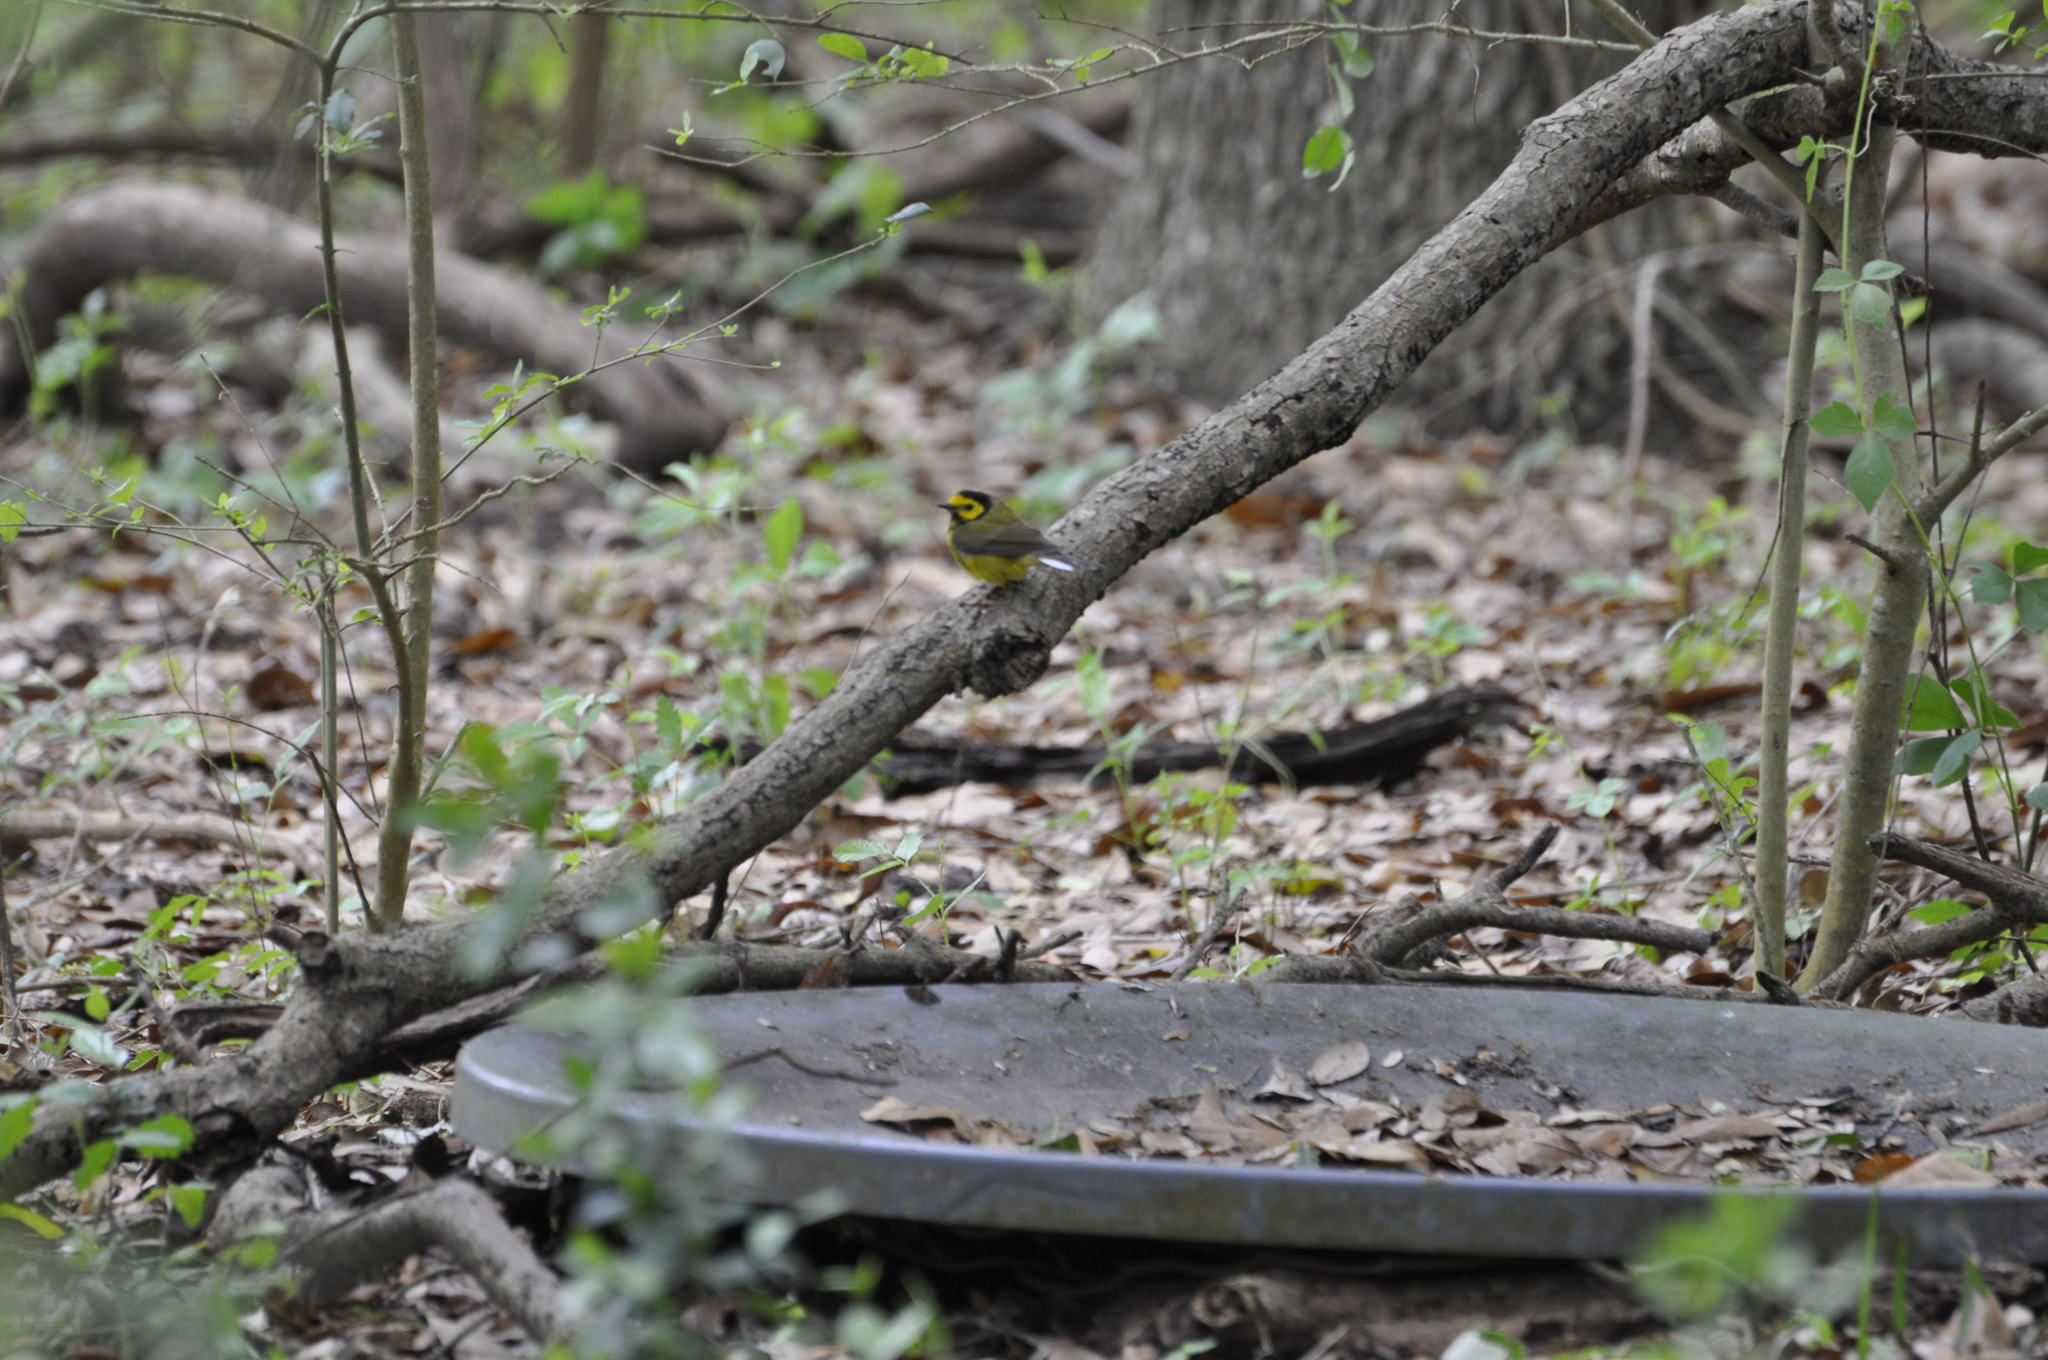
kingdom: Animalia
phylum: Chordata
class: Aves
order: Passeriformes
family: Parulidae
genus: Setophaga
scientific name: Setophaga citrina
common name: Hooded warbler
